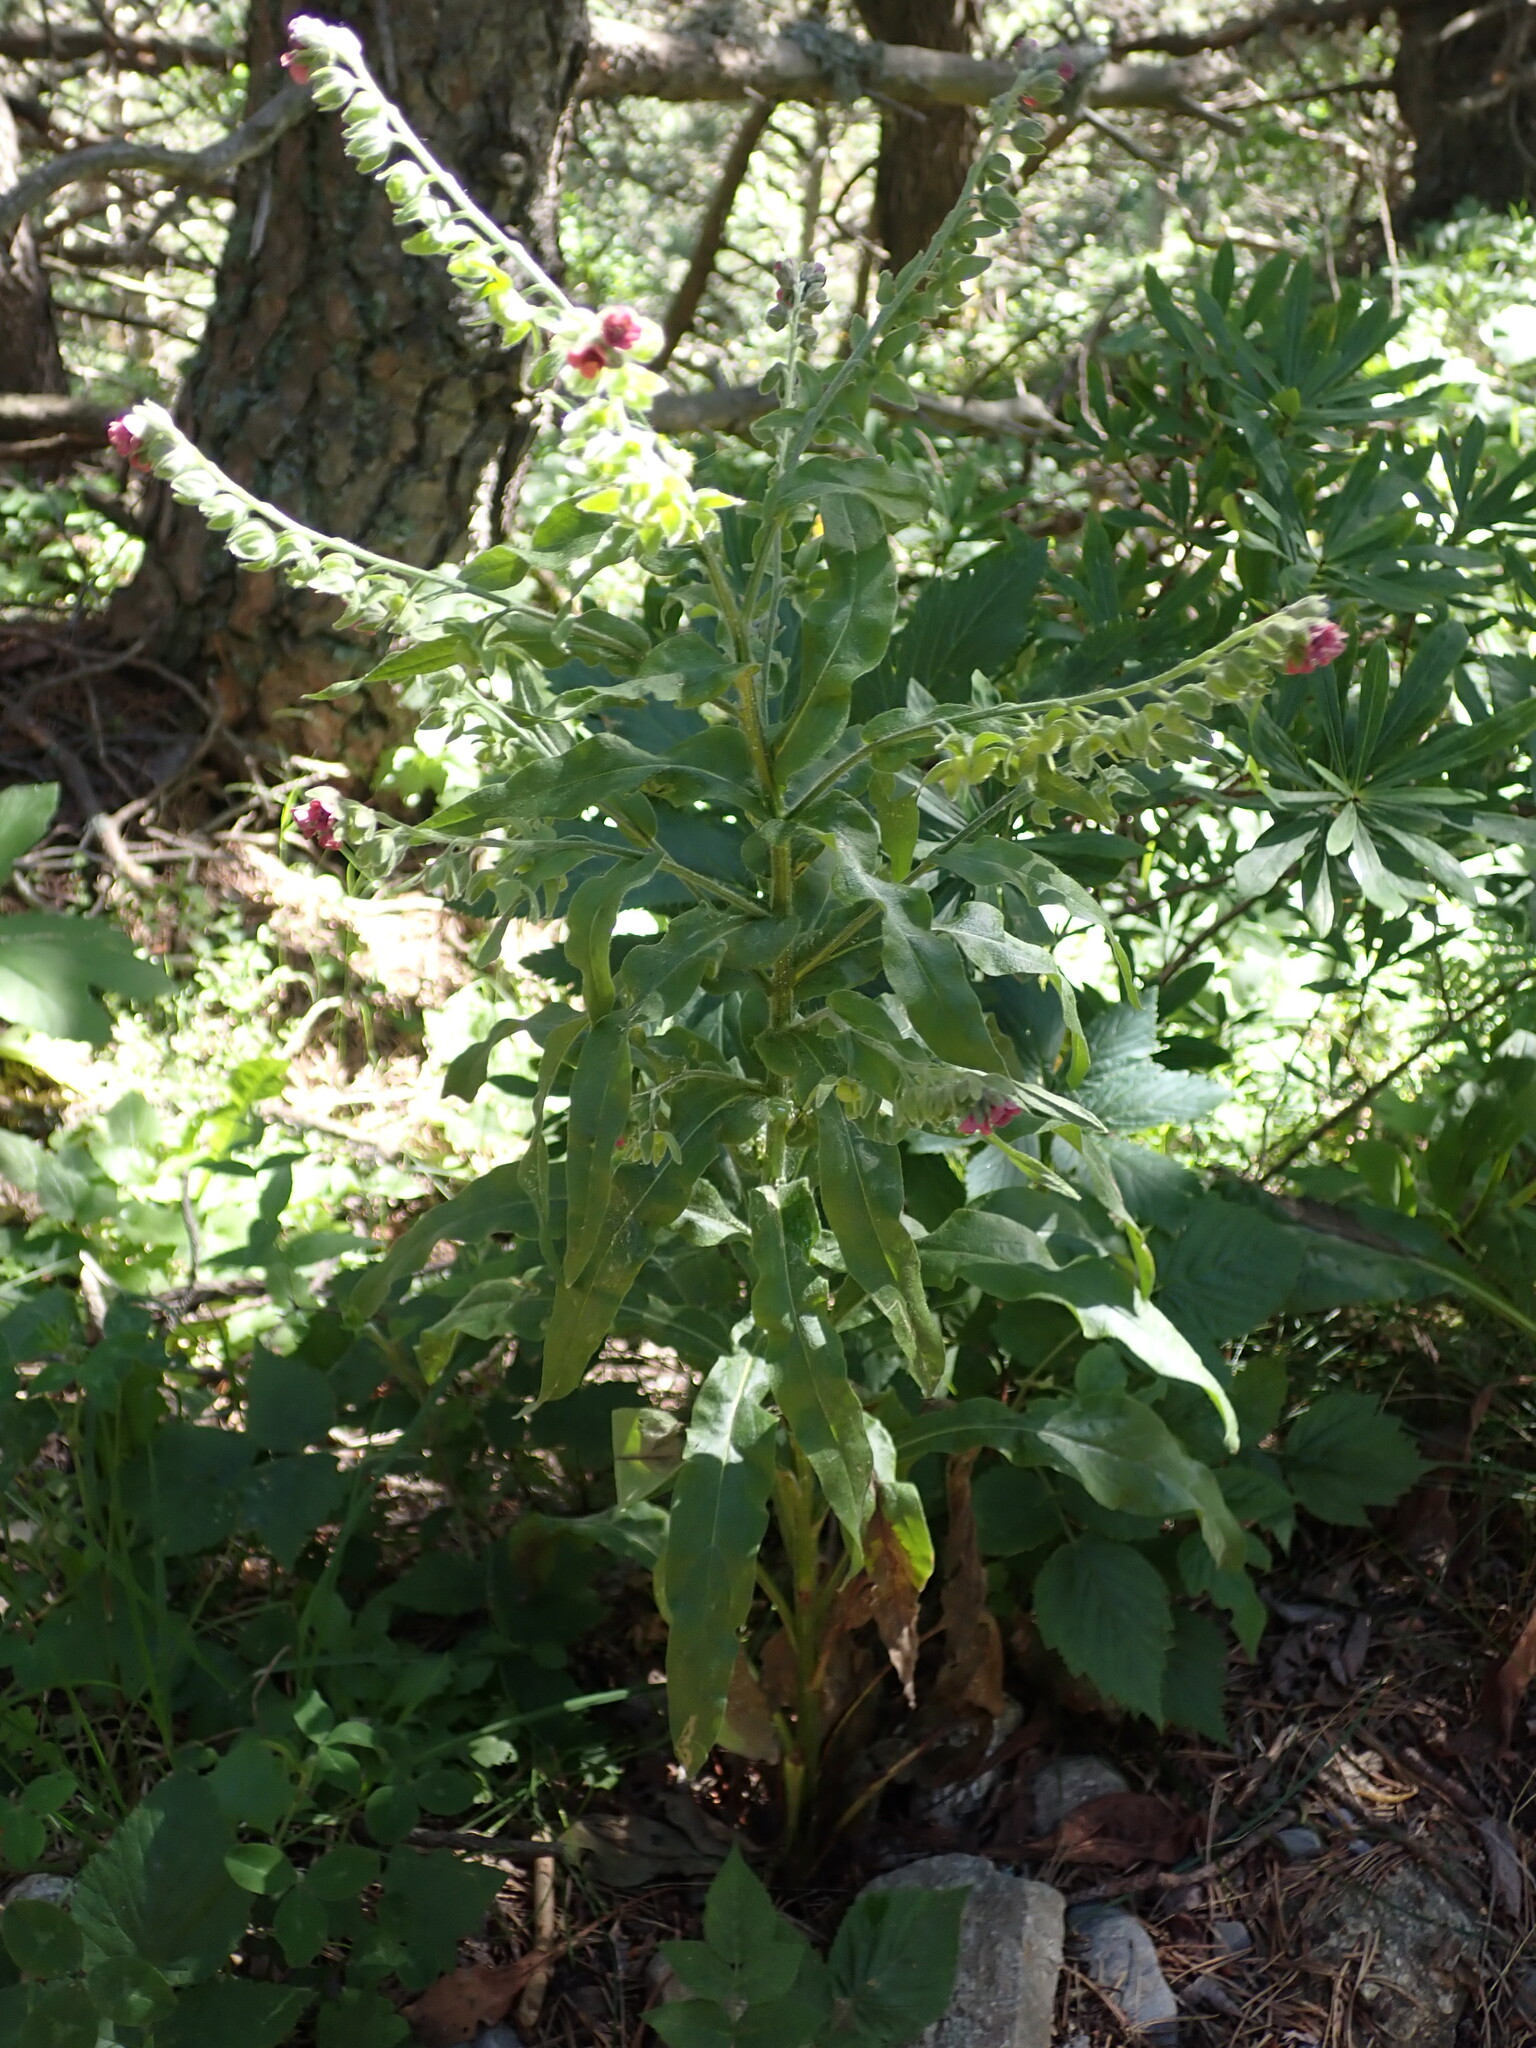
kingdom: Plantae
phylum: Tracheophyta
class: Magnoliopsida
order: Boraginales
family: Boraginaceae
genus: Cynoglossum
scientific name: Cynoglossum officinale
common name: Hound's-tongue
